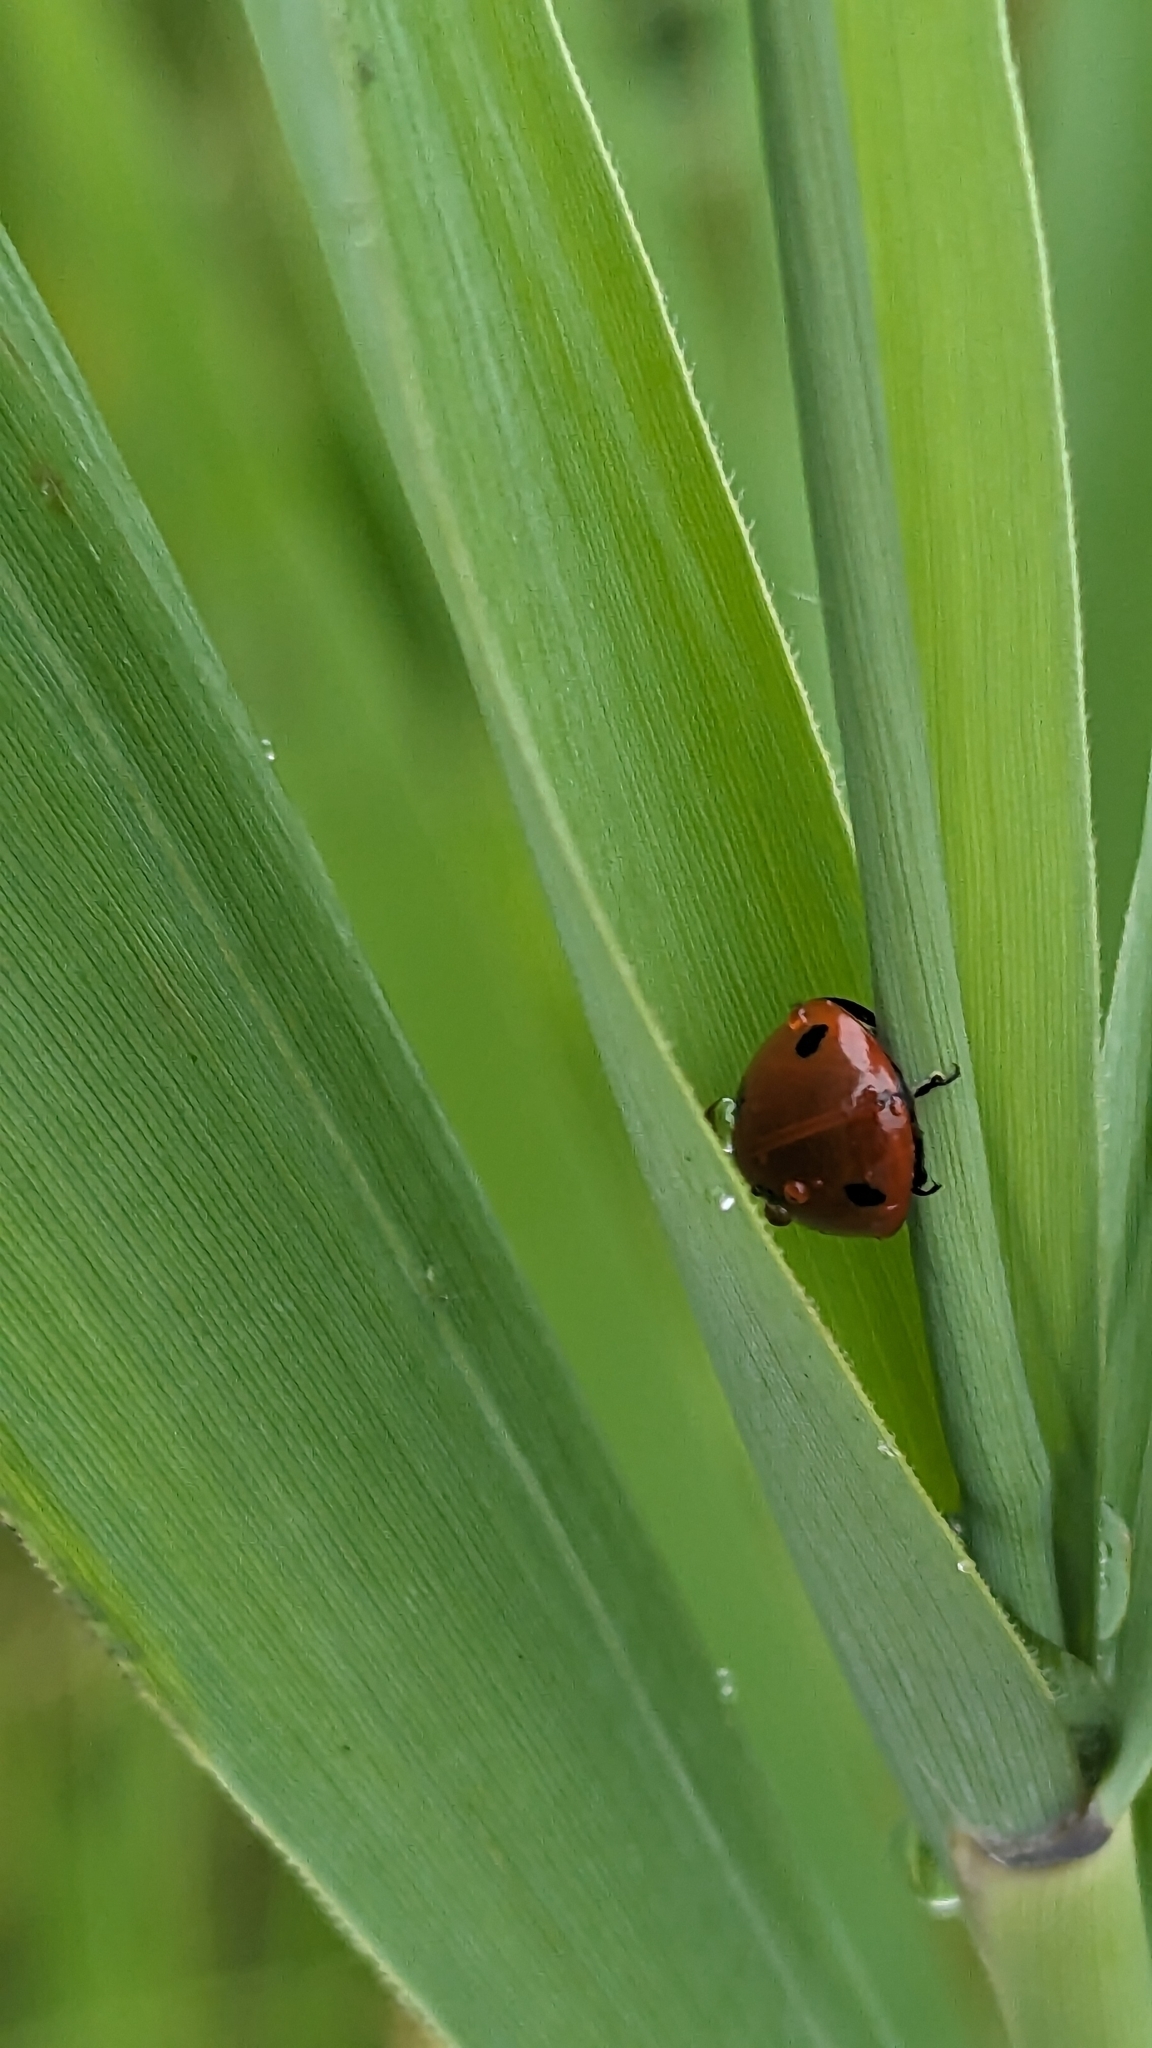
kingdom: Animalia
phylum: Arthropoda
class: Insecta
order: Coleoptera
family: Coccinellidae
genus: Coccinella
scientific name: Coccinella septempunctata
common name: Sevenspotted lady beetle
